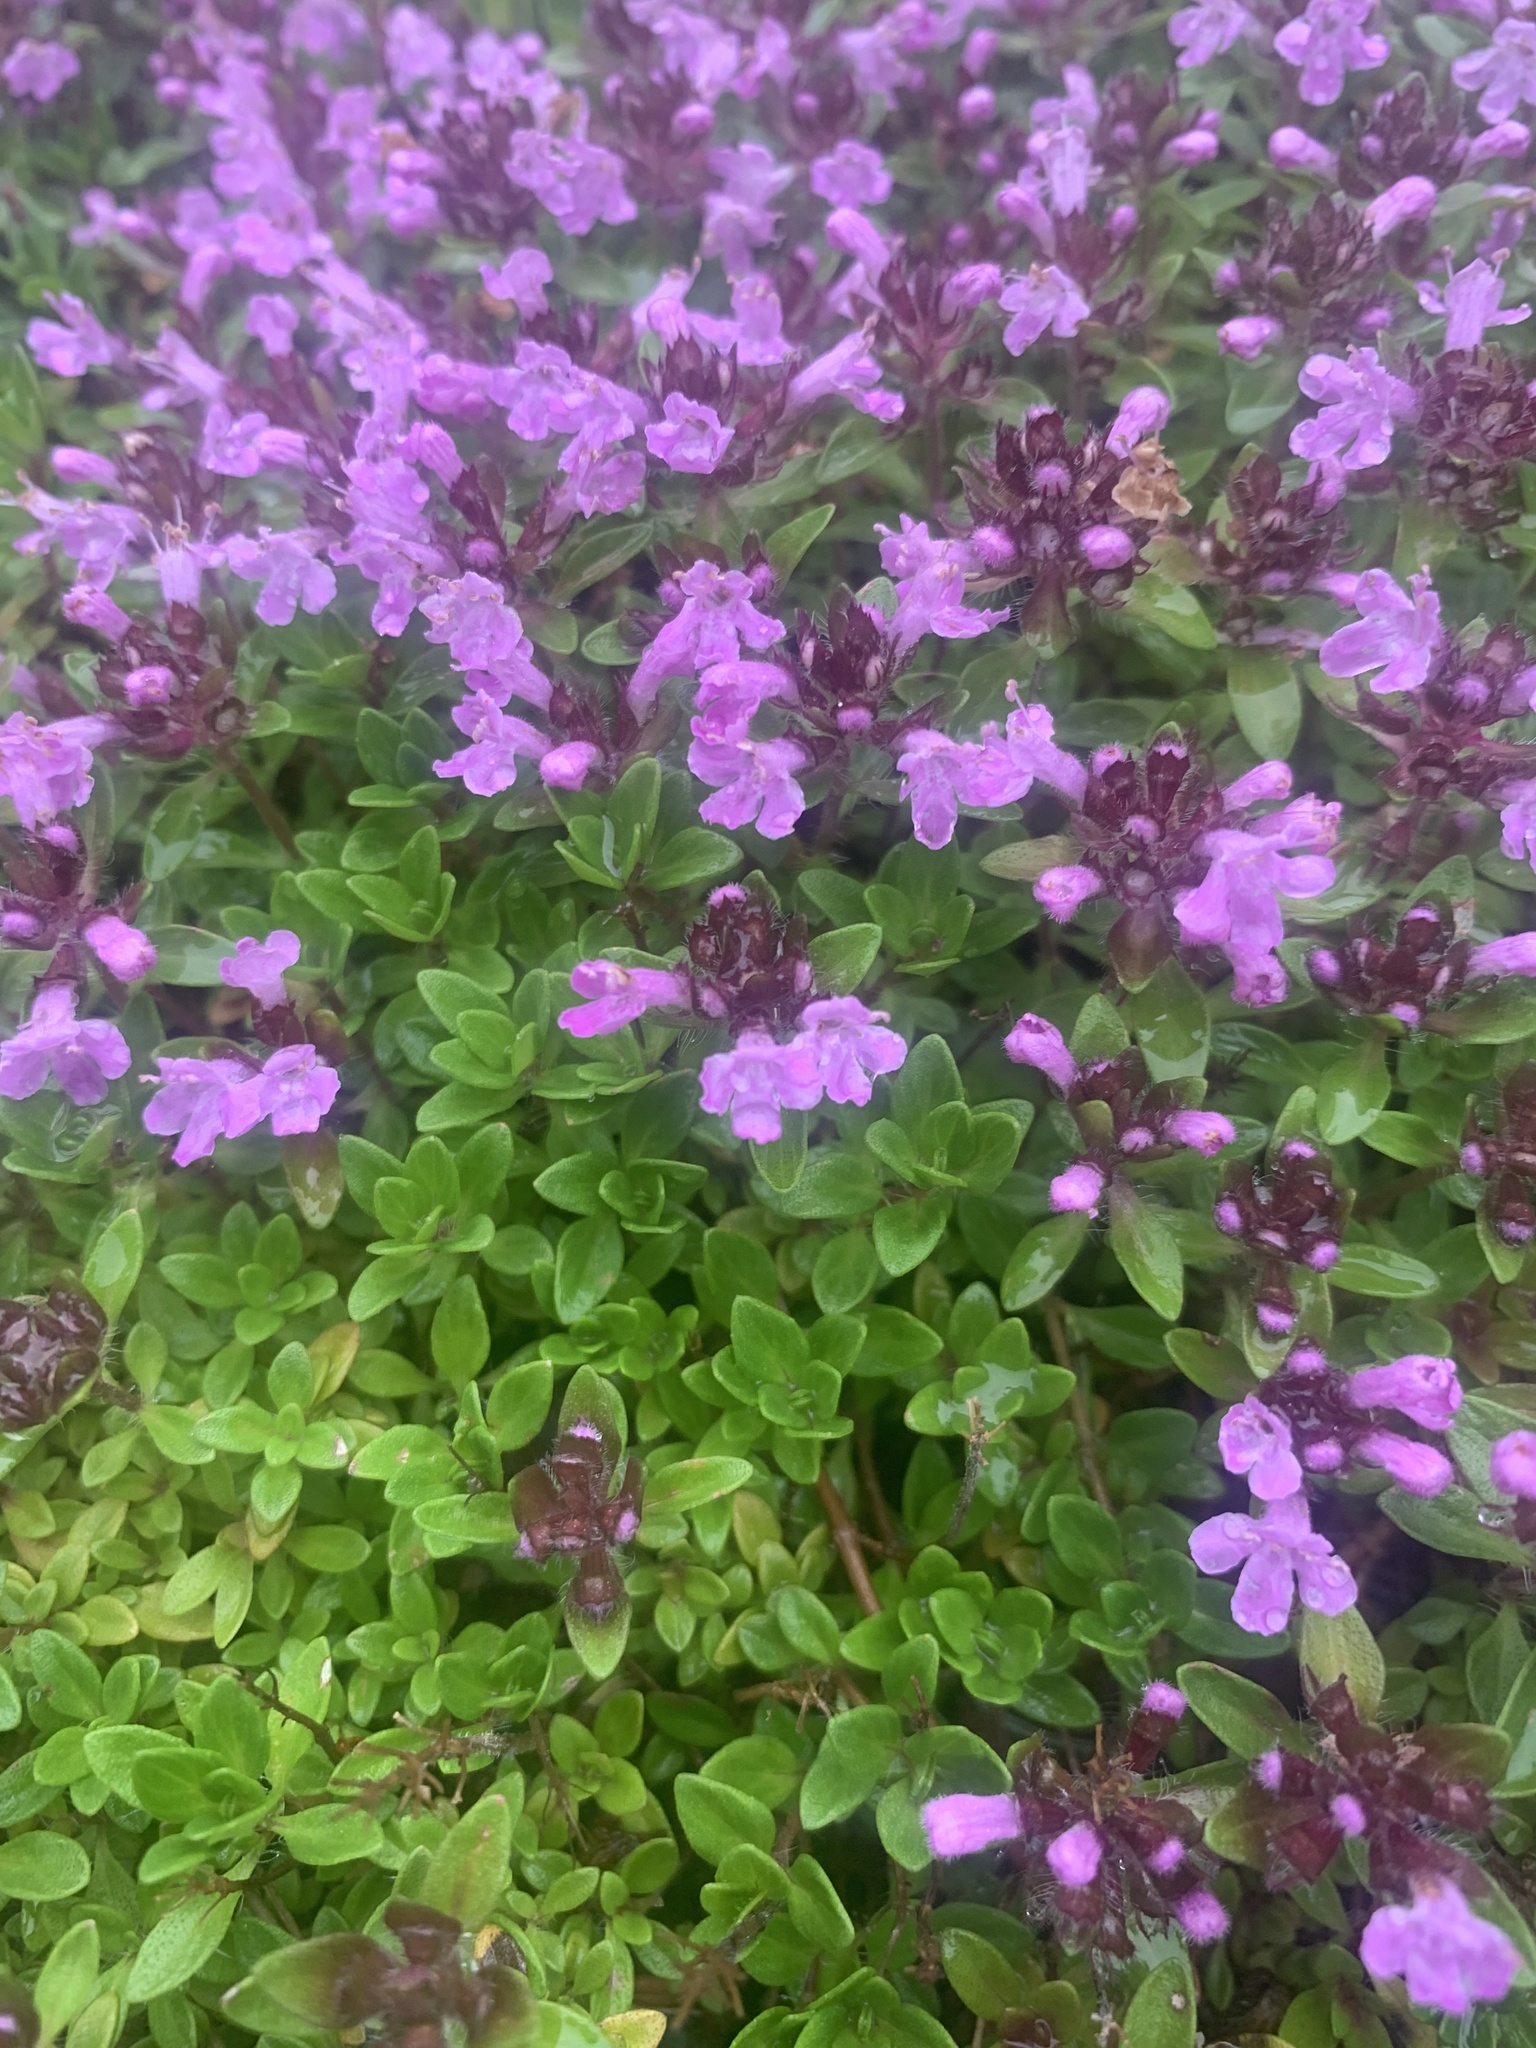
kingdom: Plantae
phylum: Tracheophyta
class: Magnoliopsida
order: Lamiales
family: Lamiaceae
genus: Thymus
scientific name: Thymus quinquecostatus
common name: Japanese thyme
